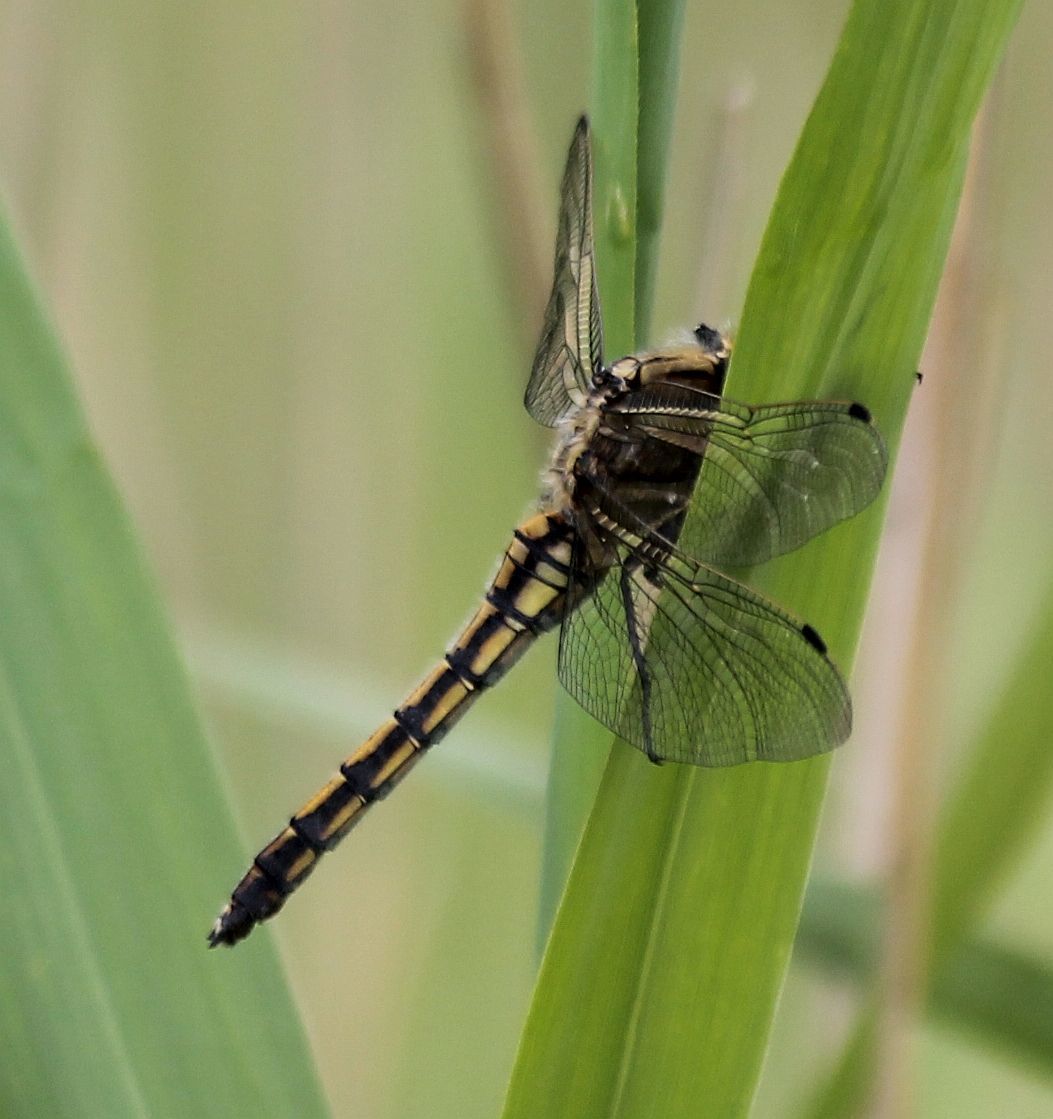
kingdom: Animalia
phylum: Arthropoda
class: Insecta
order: Odonata
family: Libellulidae
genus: Orthetrum
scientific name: Orthetrum cancellatum
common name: Black-tailed skimmer
